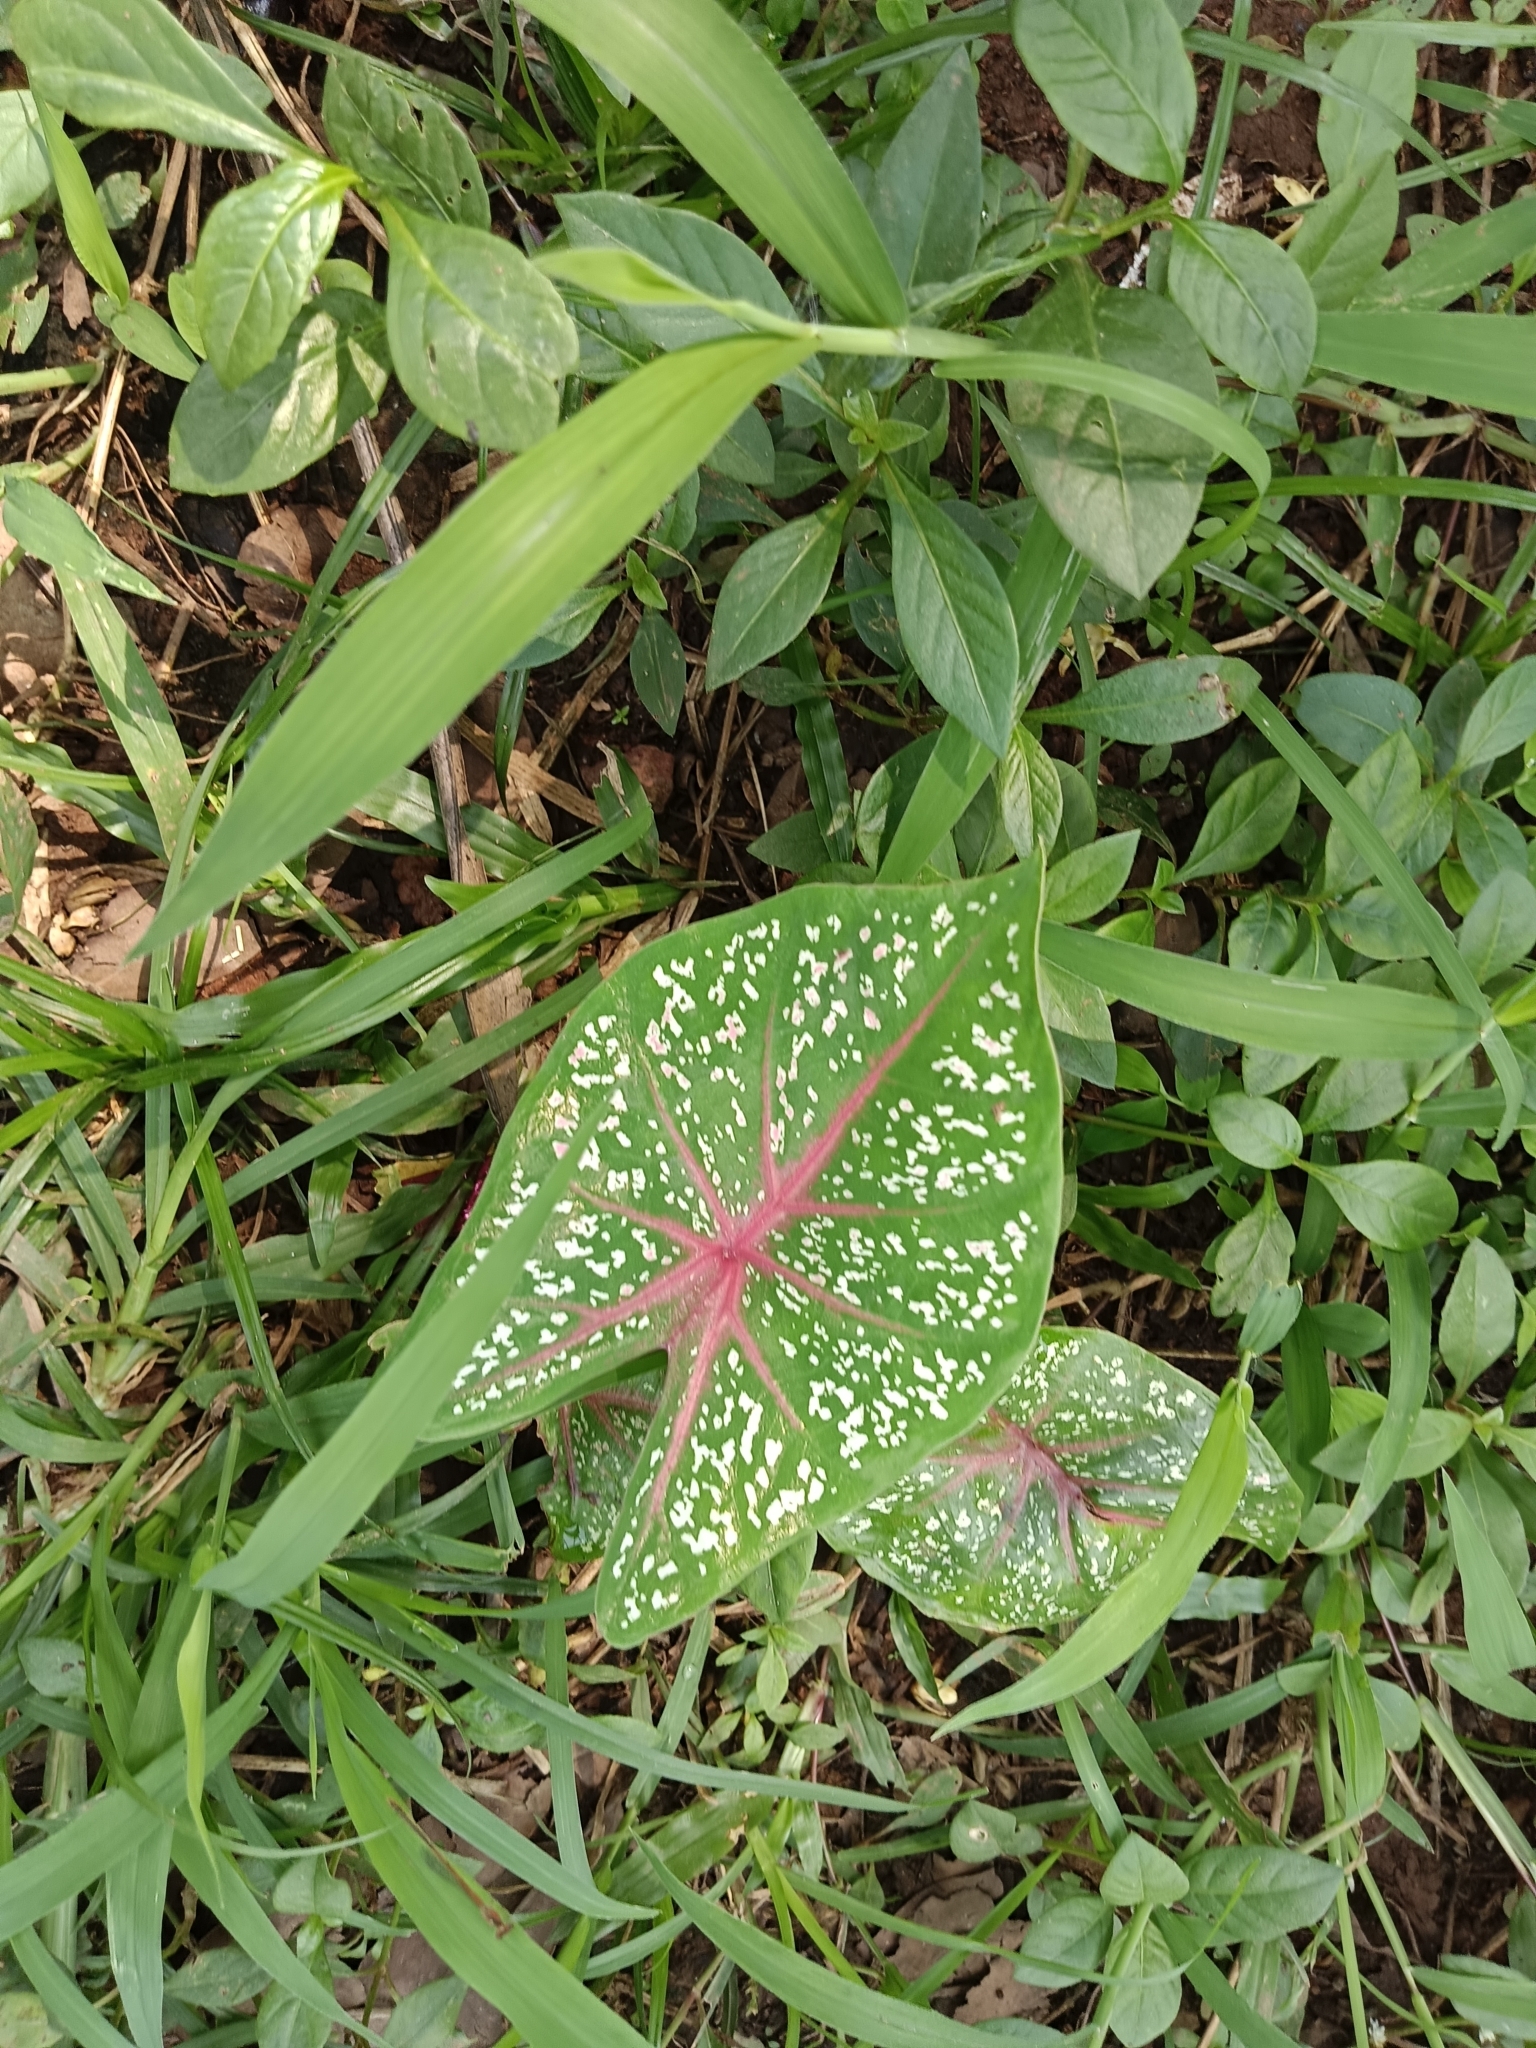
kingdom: Plantae
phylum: Tracheophyta
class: Liliopsida
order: Alismatales
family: Araceae
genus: Caladium
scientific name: Caladium bicolor
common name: Artist's pallet
